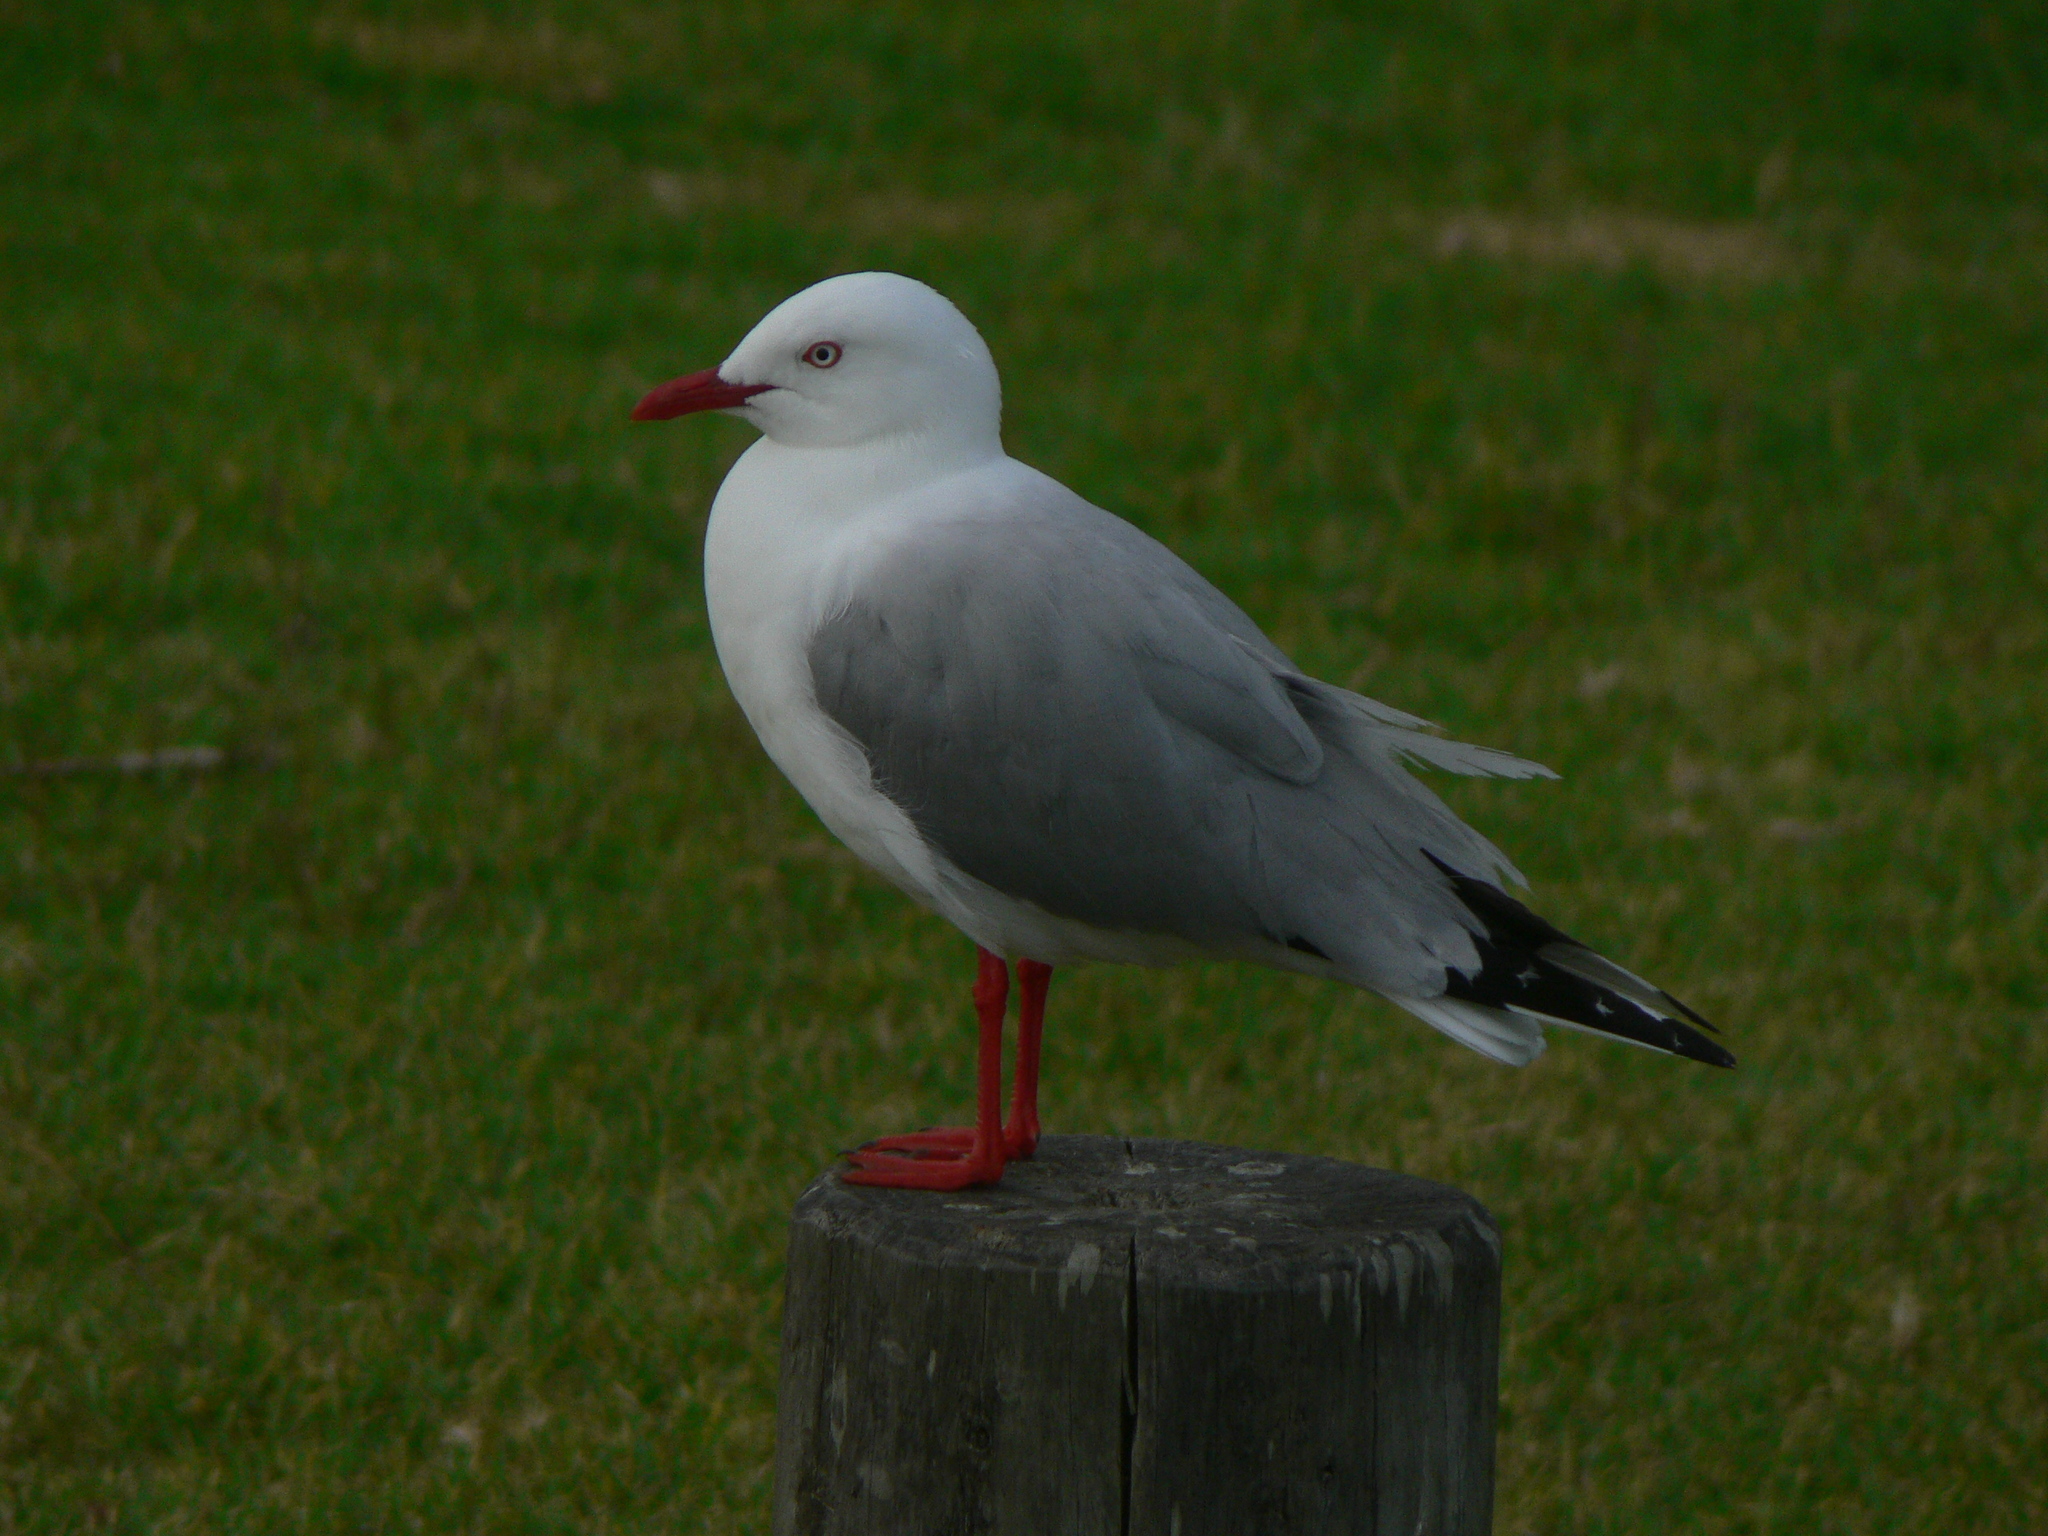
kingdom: Animalia
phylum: Chordata
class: Aves
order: Charadriiformes
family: Laridae
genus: Chroicocephalus
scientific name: Chroicocephalus novaehollandiae
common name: Silver gull
